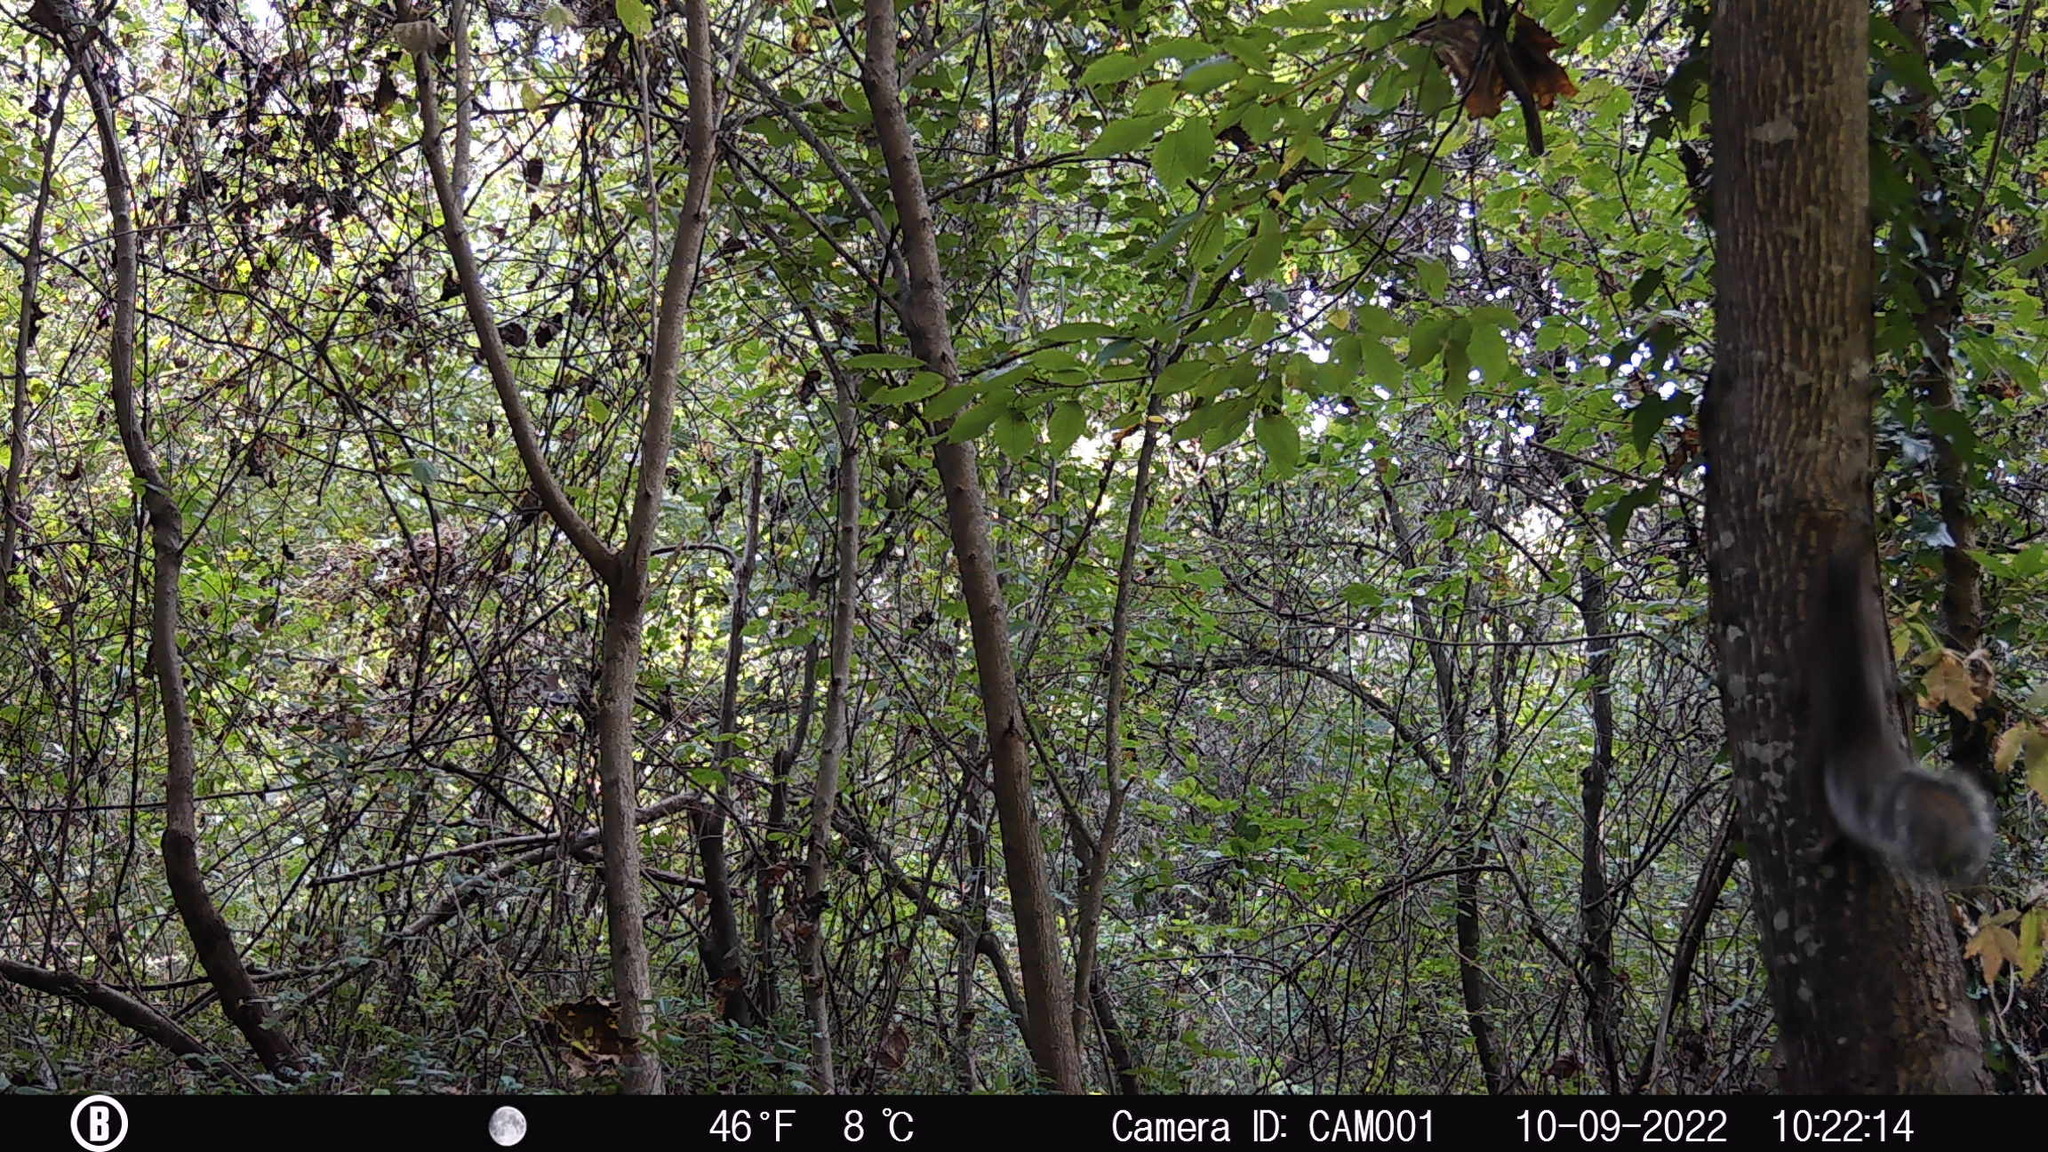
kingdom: Animalia
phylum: Chordata
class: Mammalia
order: Rodentia
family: Sciuridae
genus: Sciurus
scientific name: Sciurus carolinensis
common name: Eastern gray squirrel
